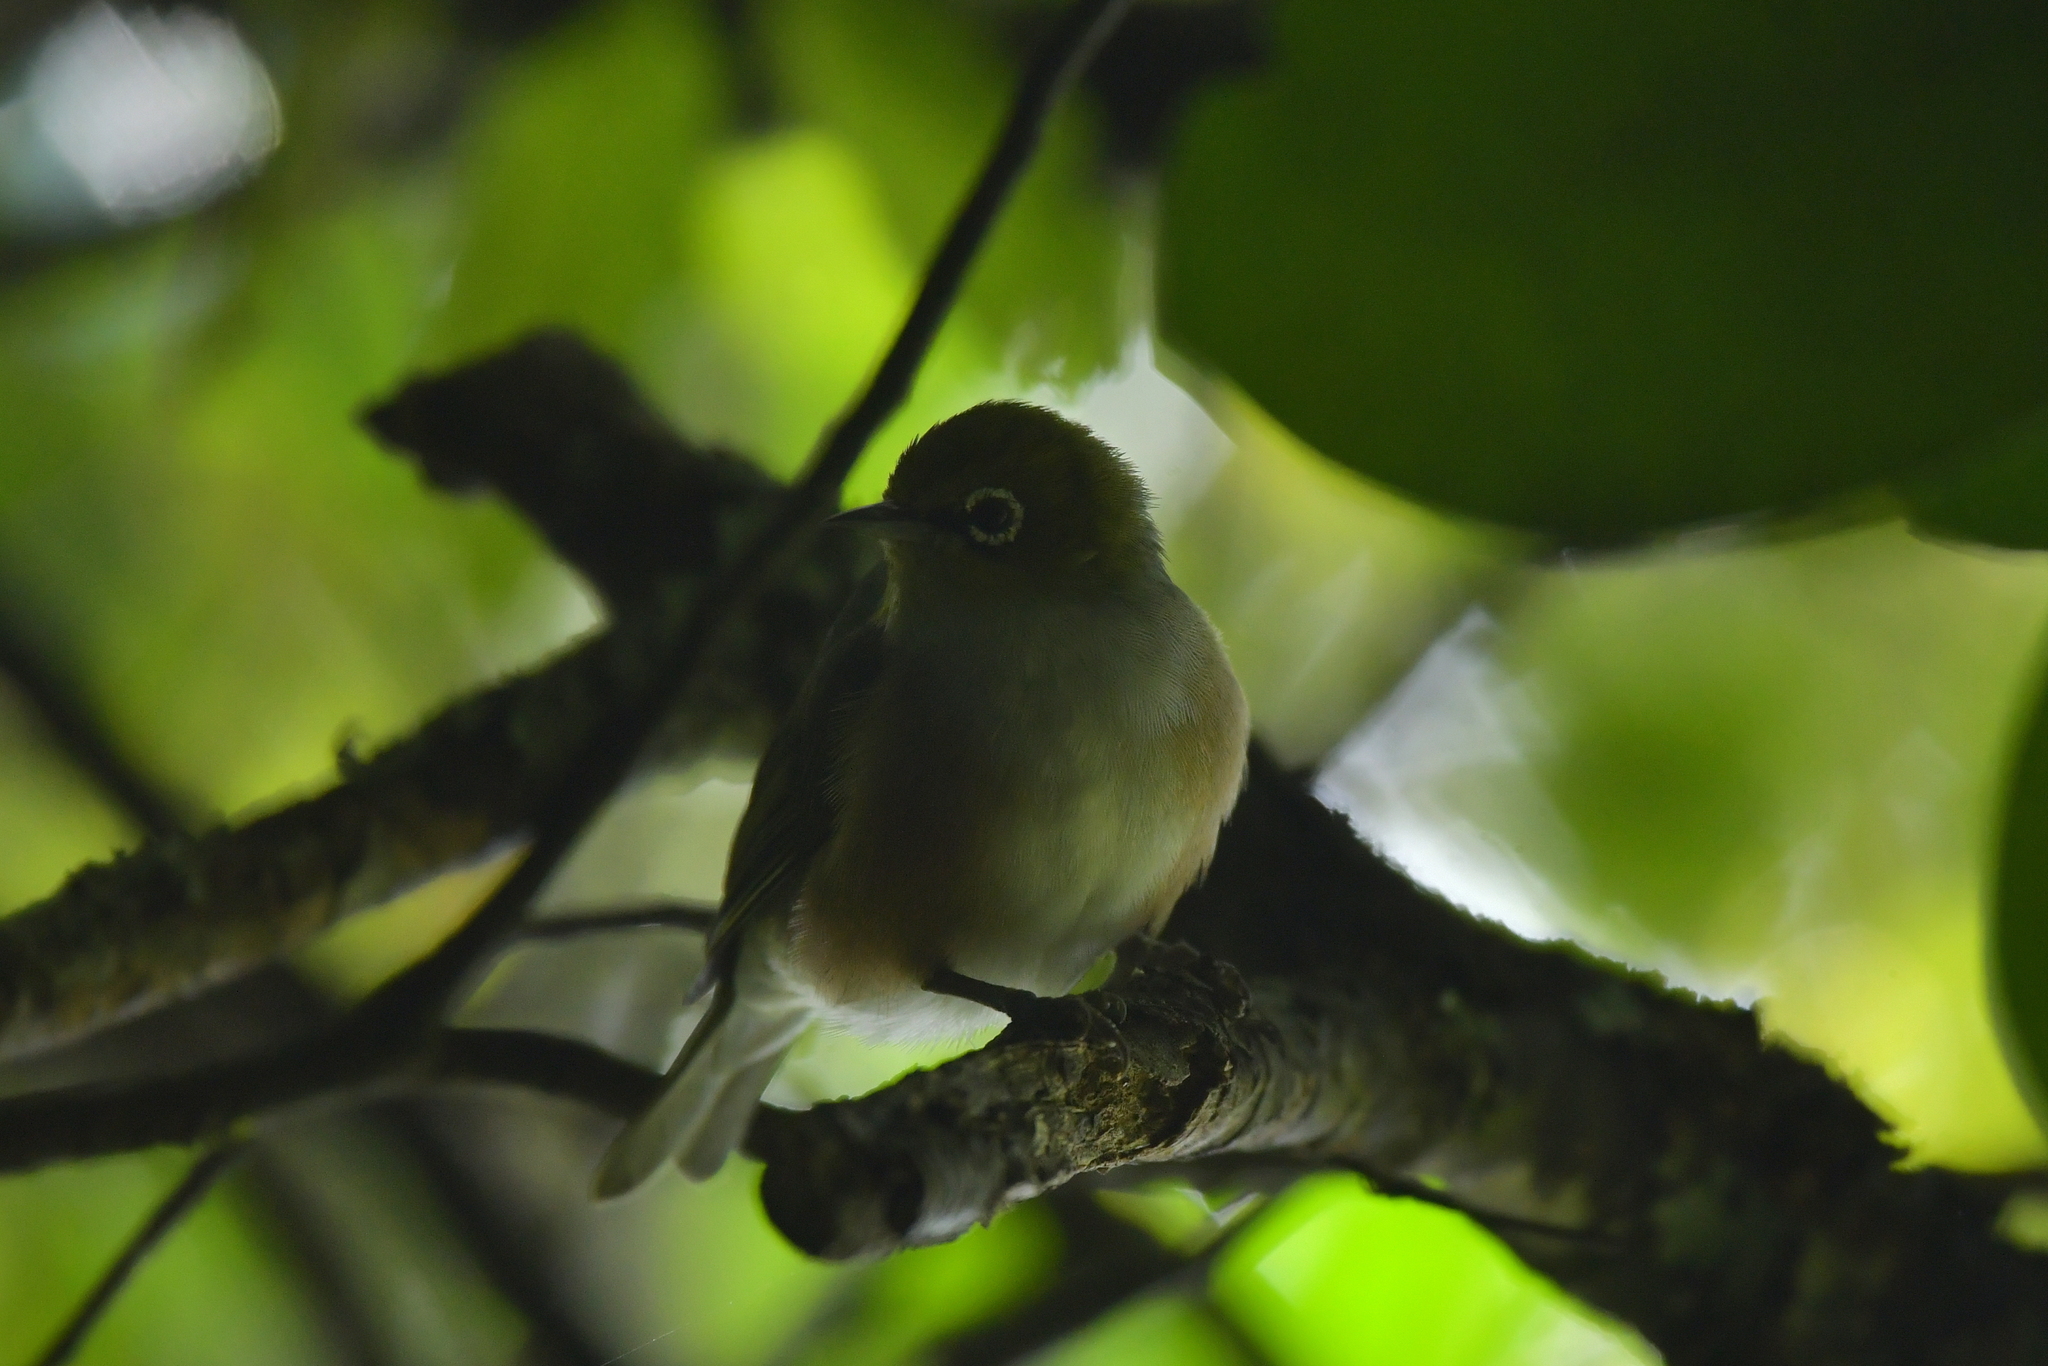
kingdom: Animalia
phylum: Chordata
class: Aves
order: Passeriformes
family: Zosteropidae
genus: Zosterops
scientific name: Zosterops lateralis
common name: Silvereye
